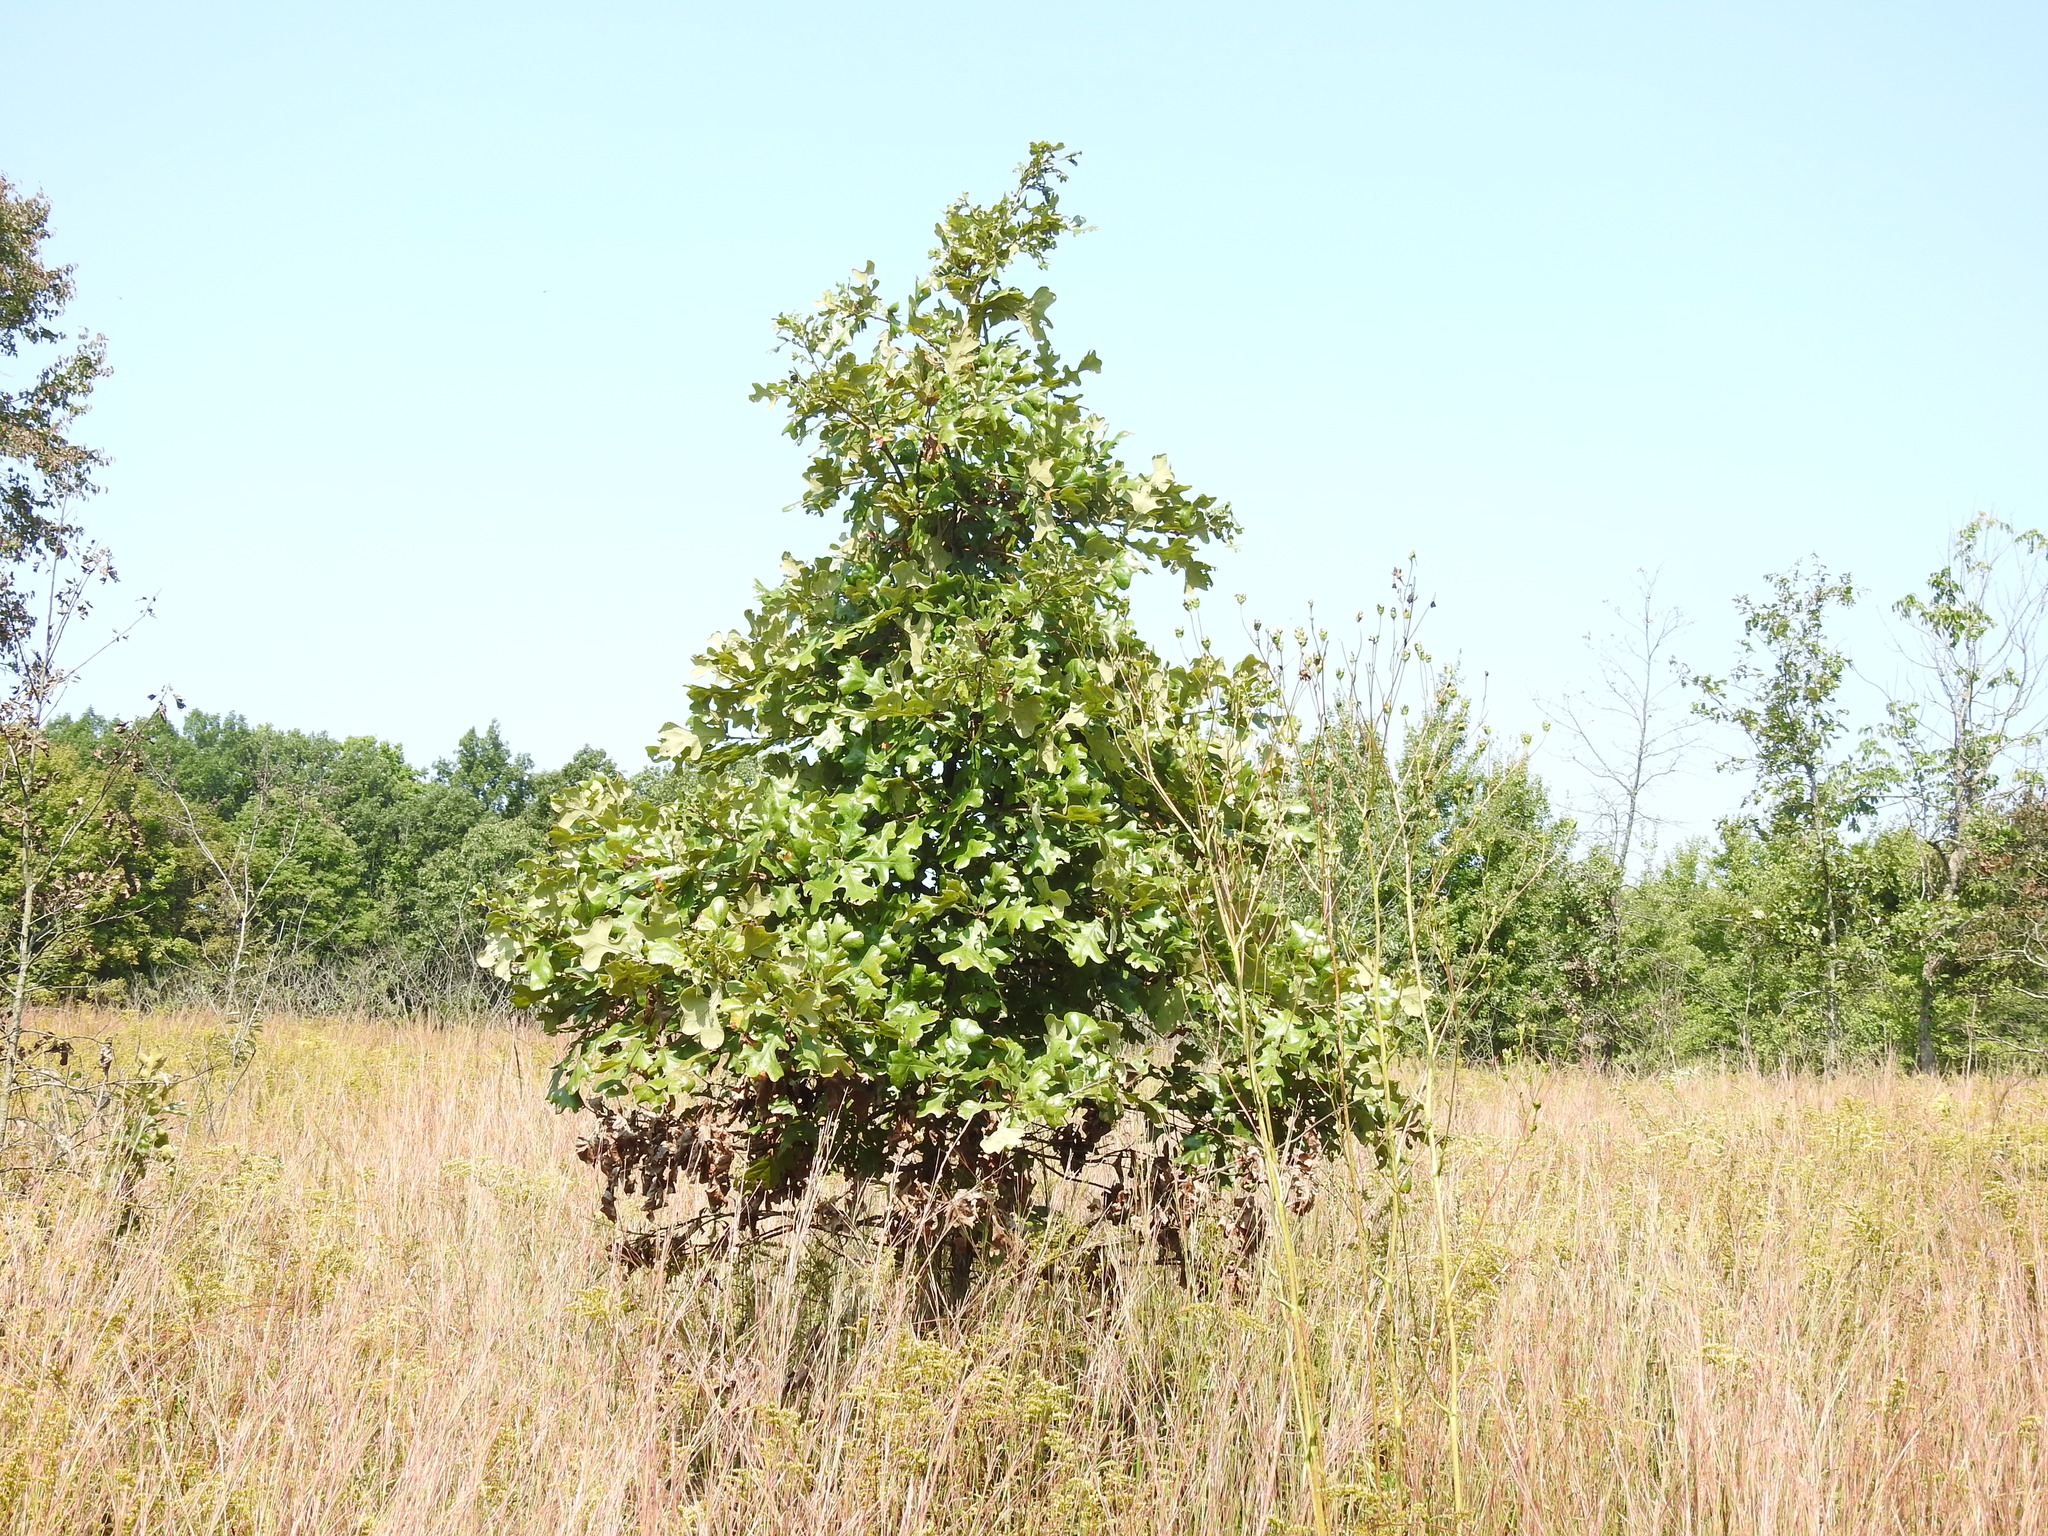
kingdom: Plantae
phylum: Tracheophyta
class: Magnoliopsida
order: Fagales
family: Fagaceae
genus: Quercus
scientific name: Quercus stellata
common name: Post oak
